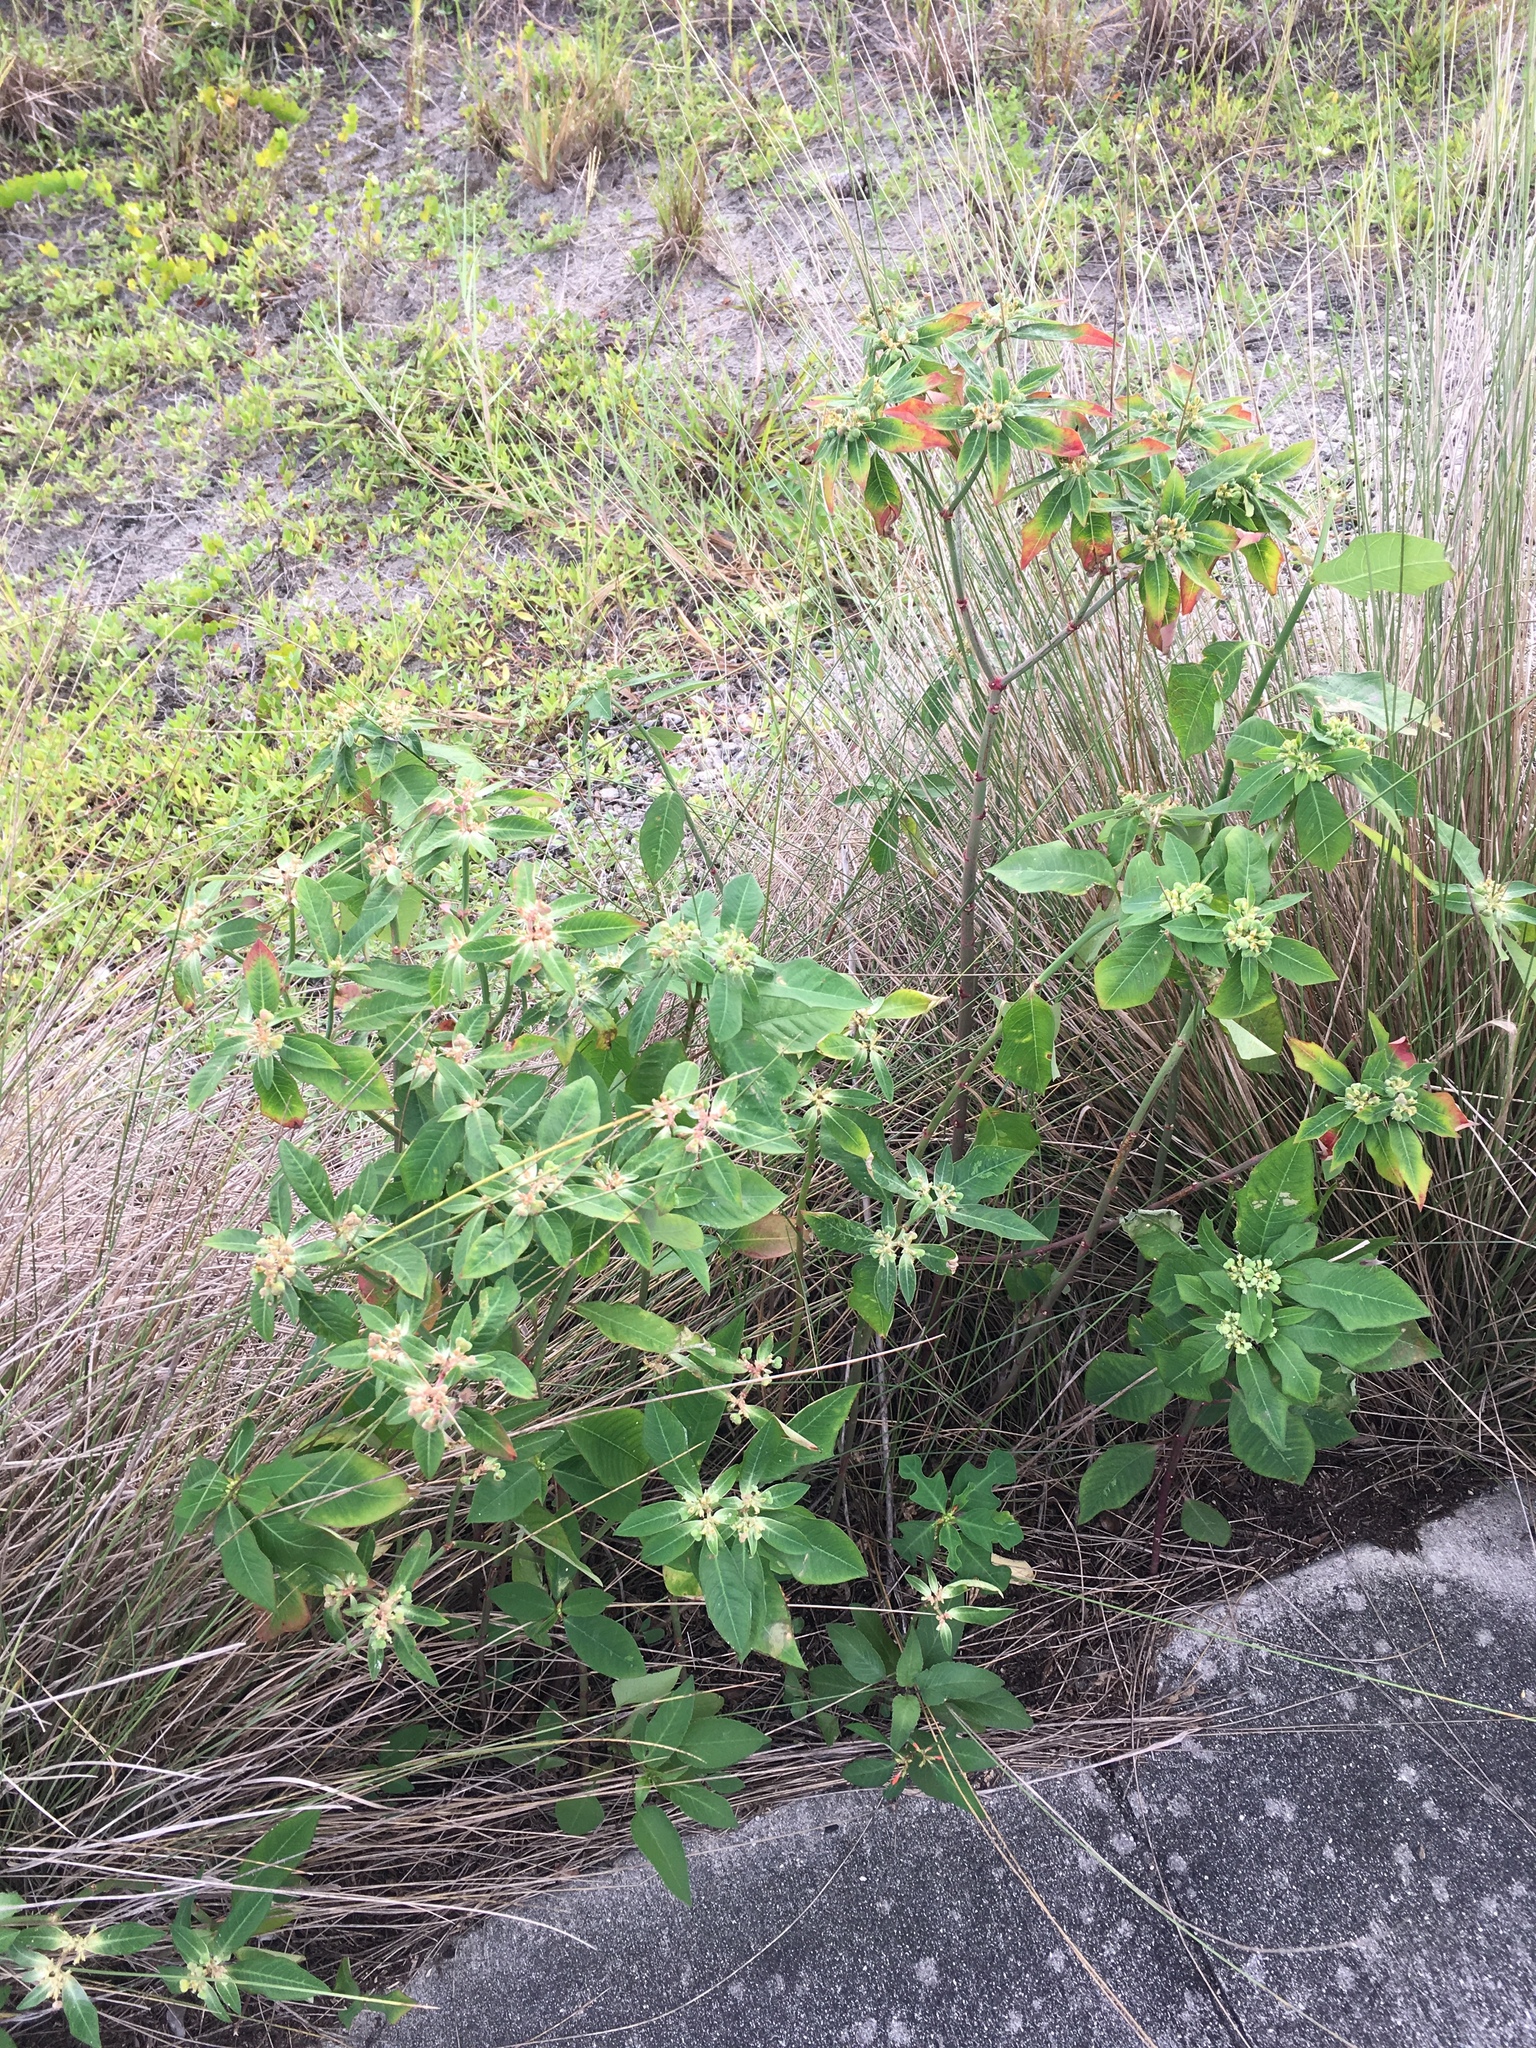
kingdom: Plantae
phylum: Tracheophyta
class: Magnoliopsida
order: Malpighiales
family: Euphorbiaceae
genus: Euphorbia
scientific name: Euphorbia heterophylla
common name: Mexican fireplant
